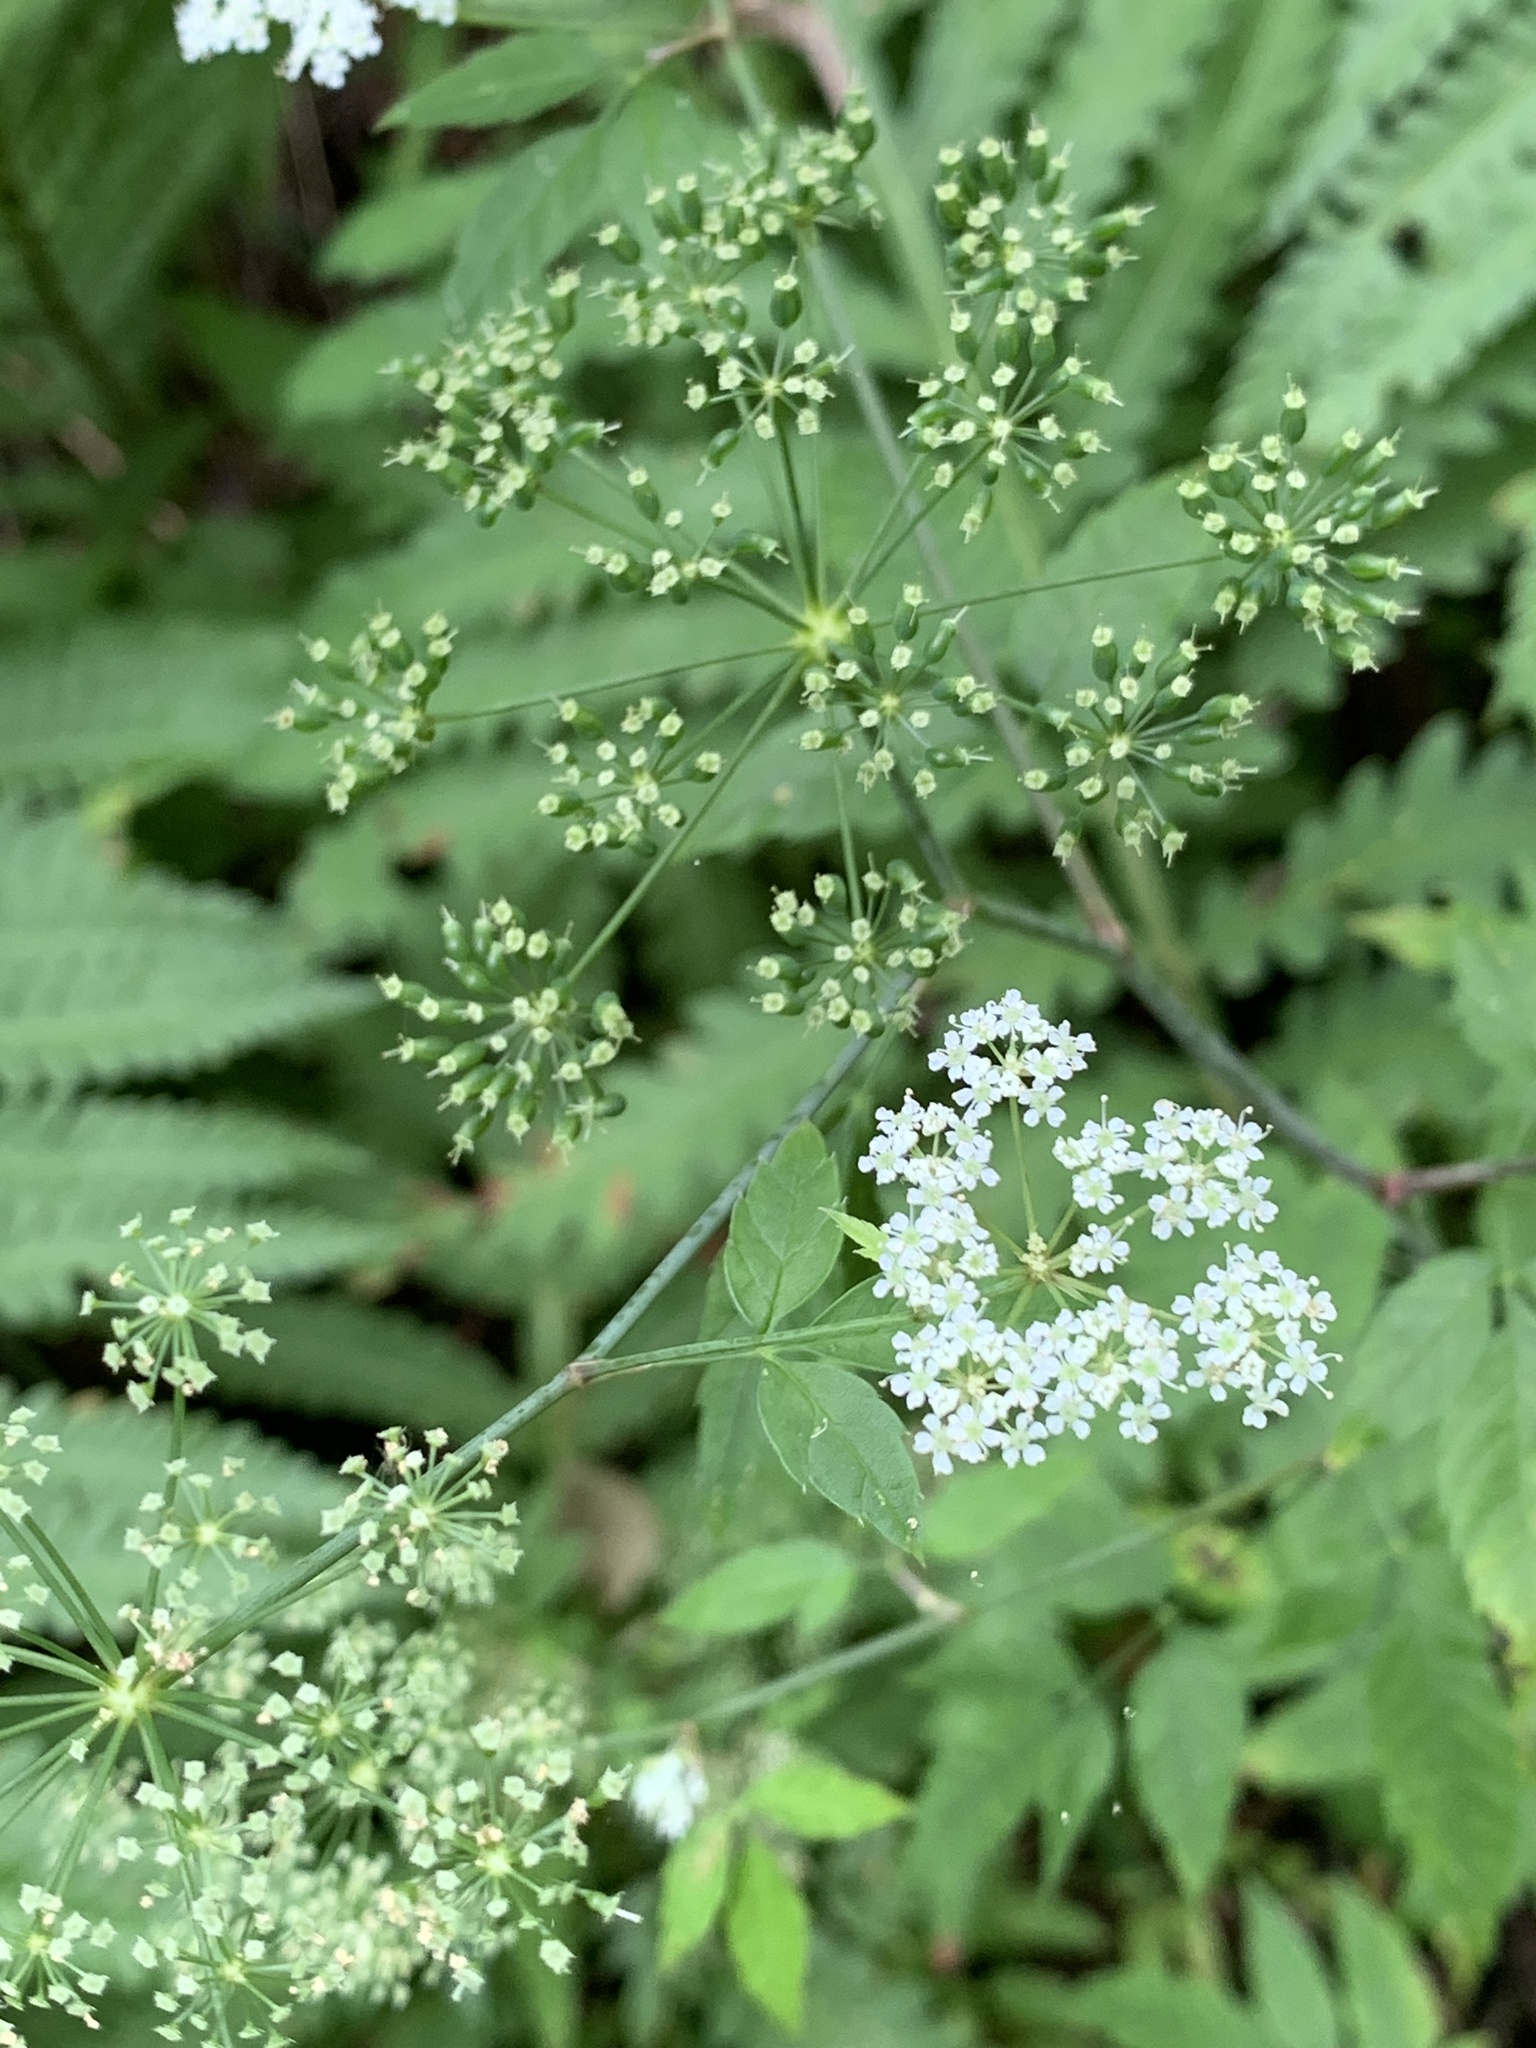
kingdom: Plantae
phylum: Tracheophyta
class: Magnoliopsida
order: Apiales
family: Apiaceae
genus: Sium
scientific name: Sium suave
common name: Hemlock water-parsnip
